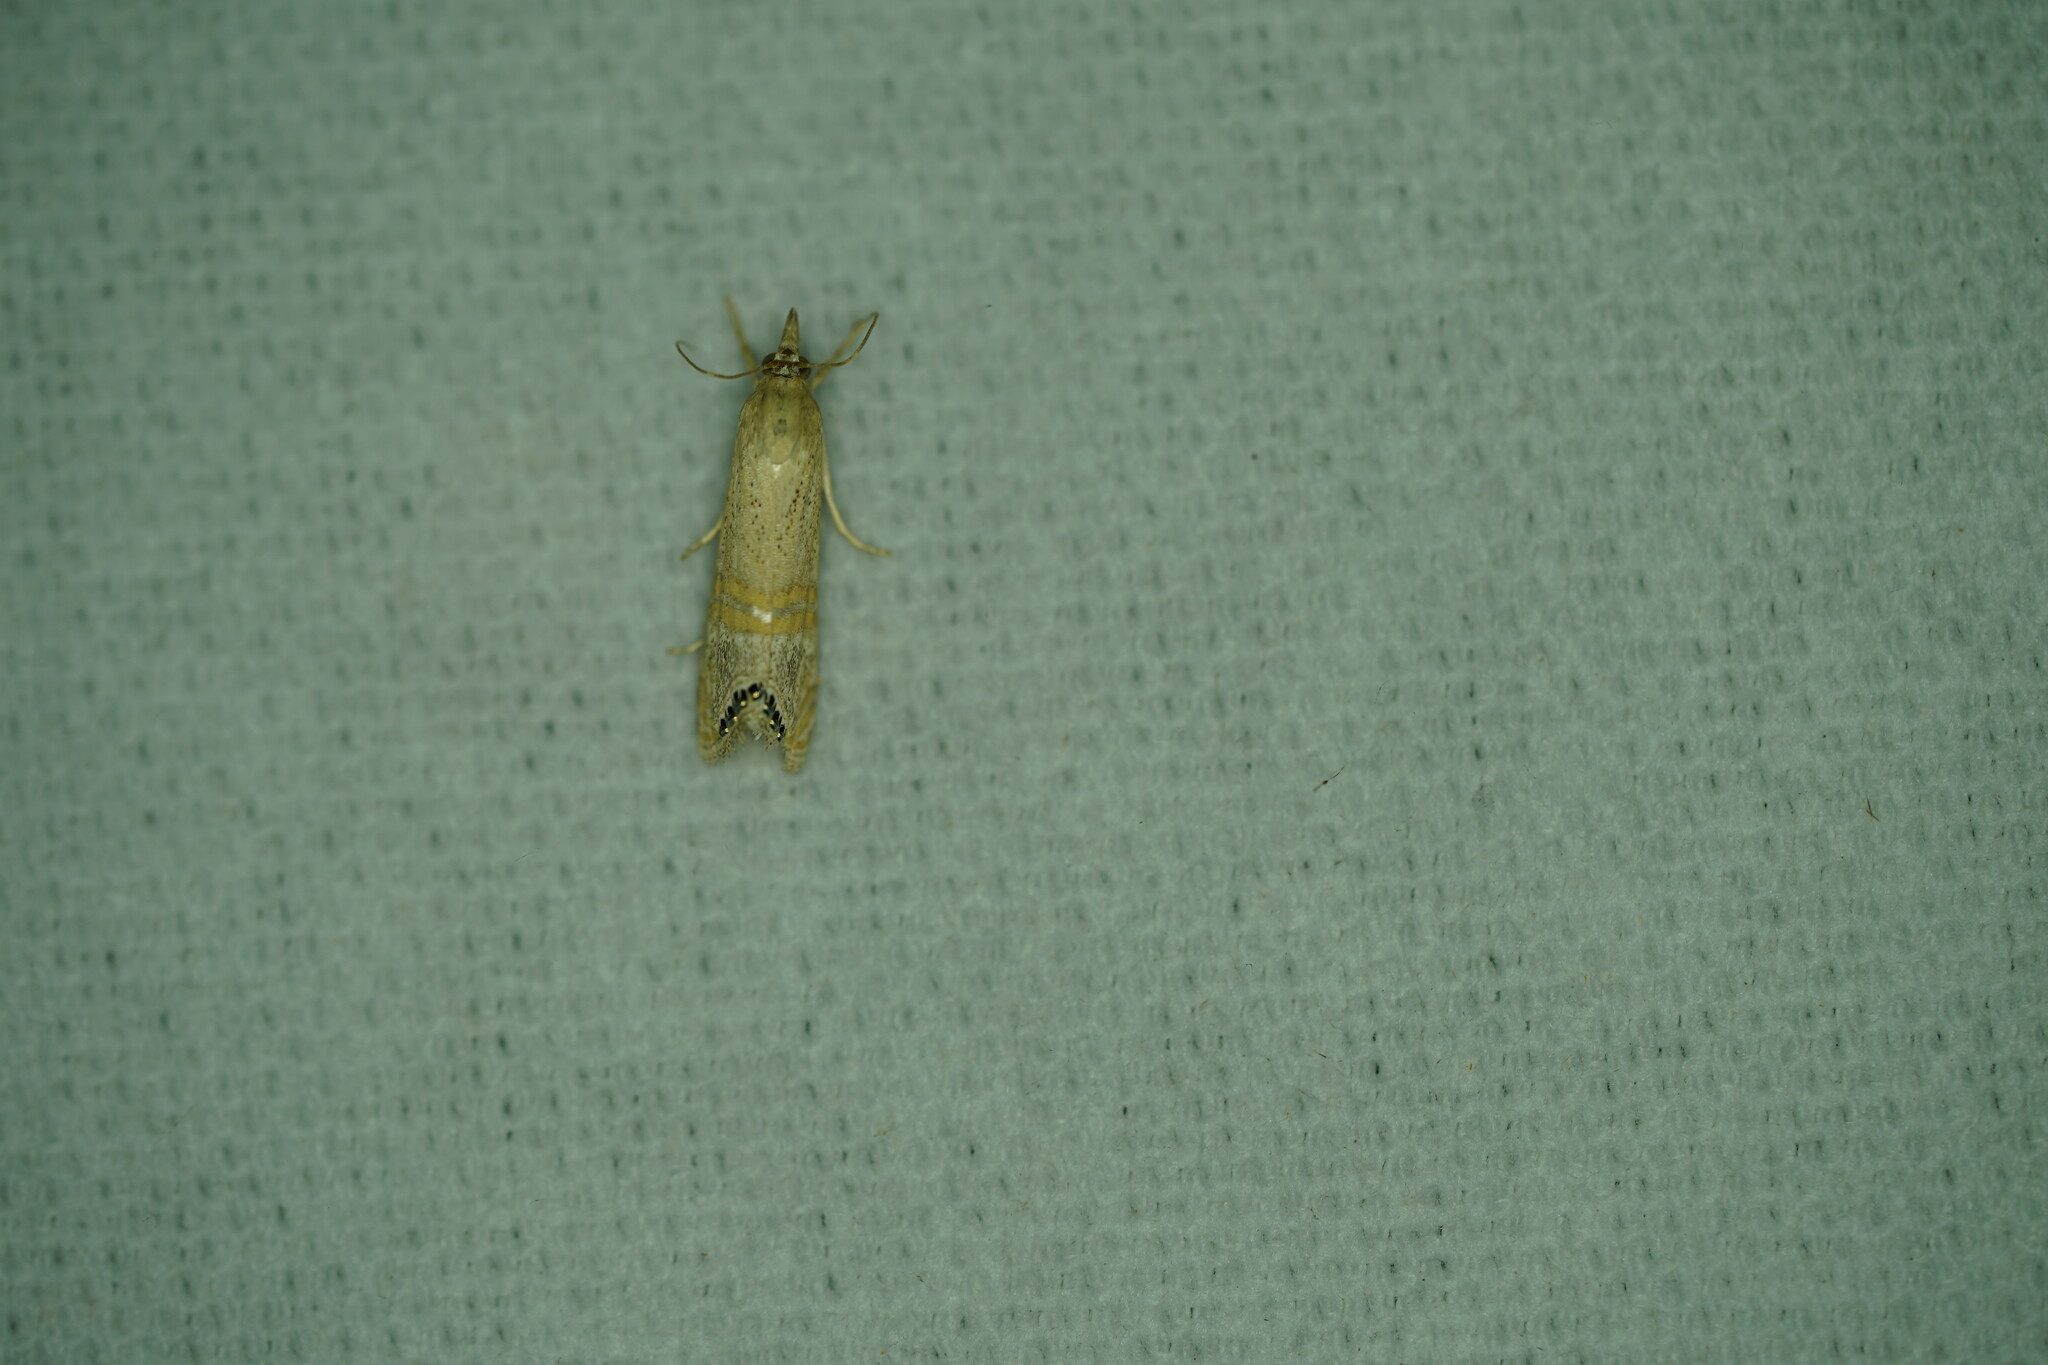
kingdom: Animalia
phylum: Arthropoda
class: Insecta
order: Lepidoptera
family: Crambidae
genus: Euchromius
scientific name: Euchromius ocellea
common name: Necklace veneer moth
